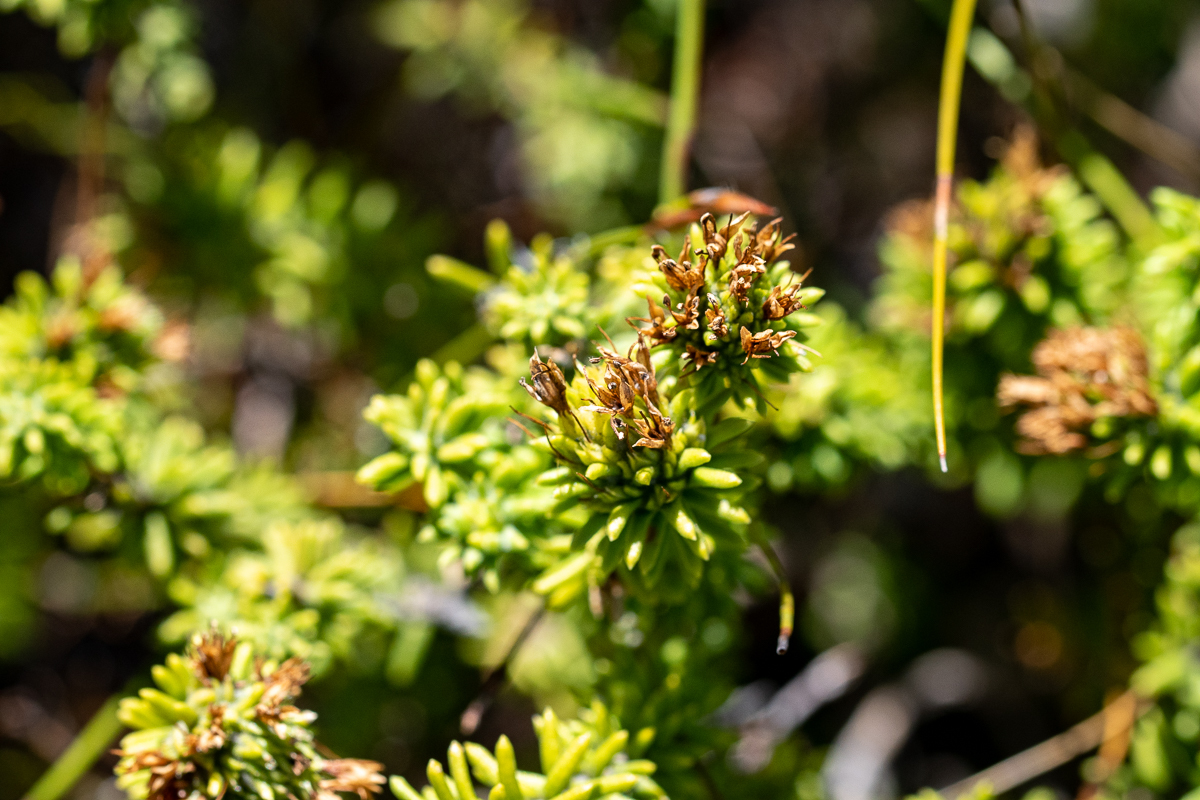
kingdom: Plantae
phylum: Tracheophyta
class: Magnoliopsida
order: Lamiales
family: Stilbaceae
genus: Campylostachys
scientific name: Campylostachys cernua
